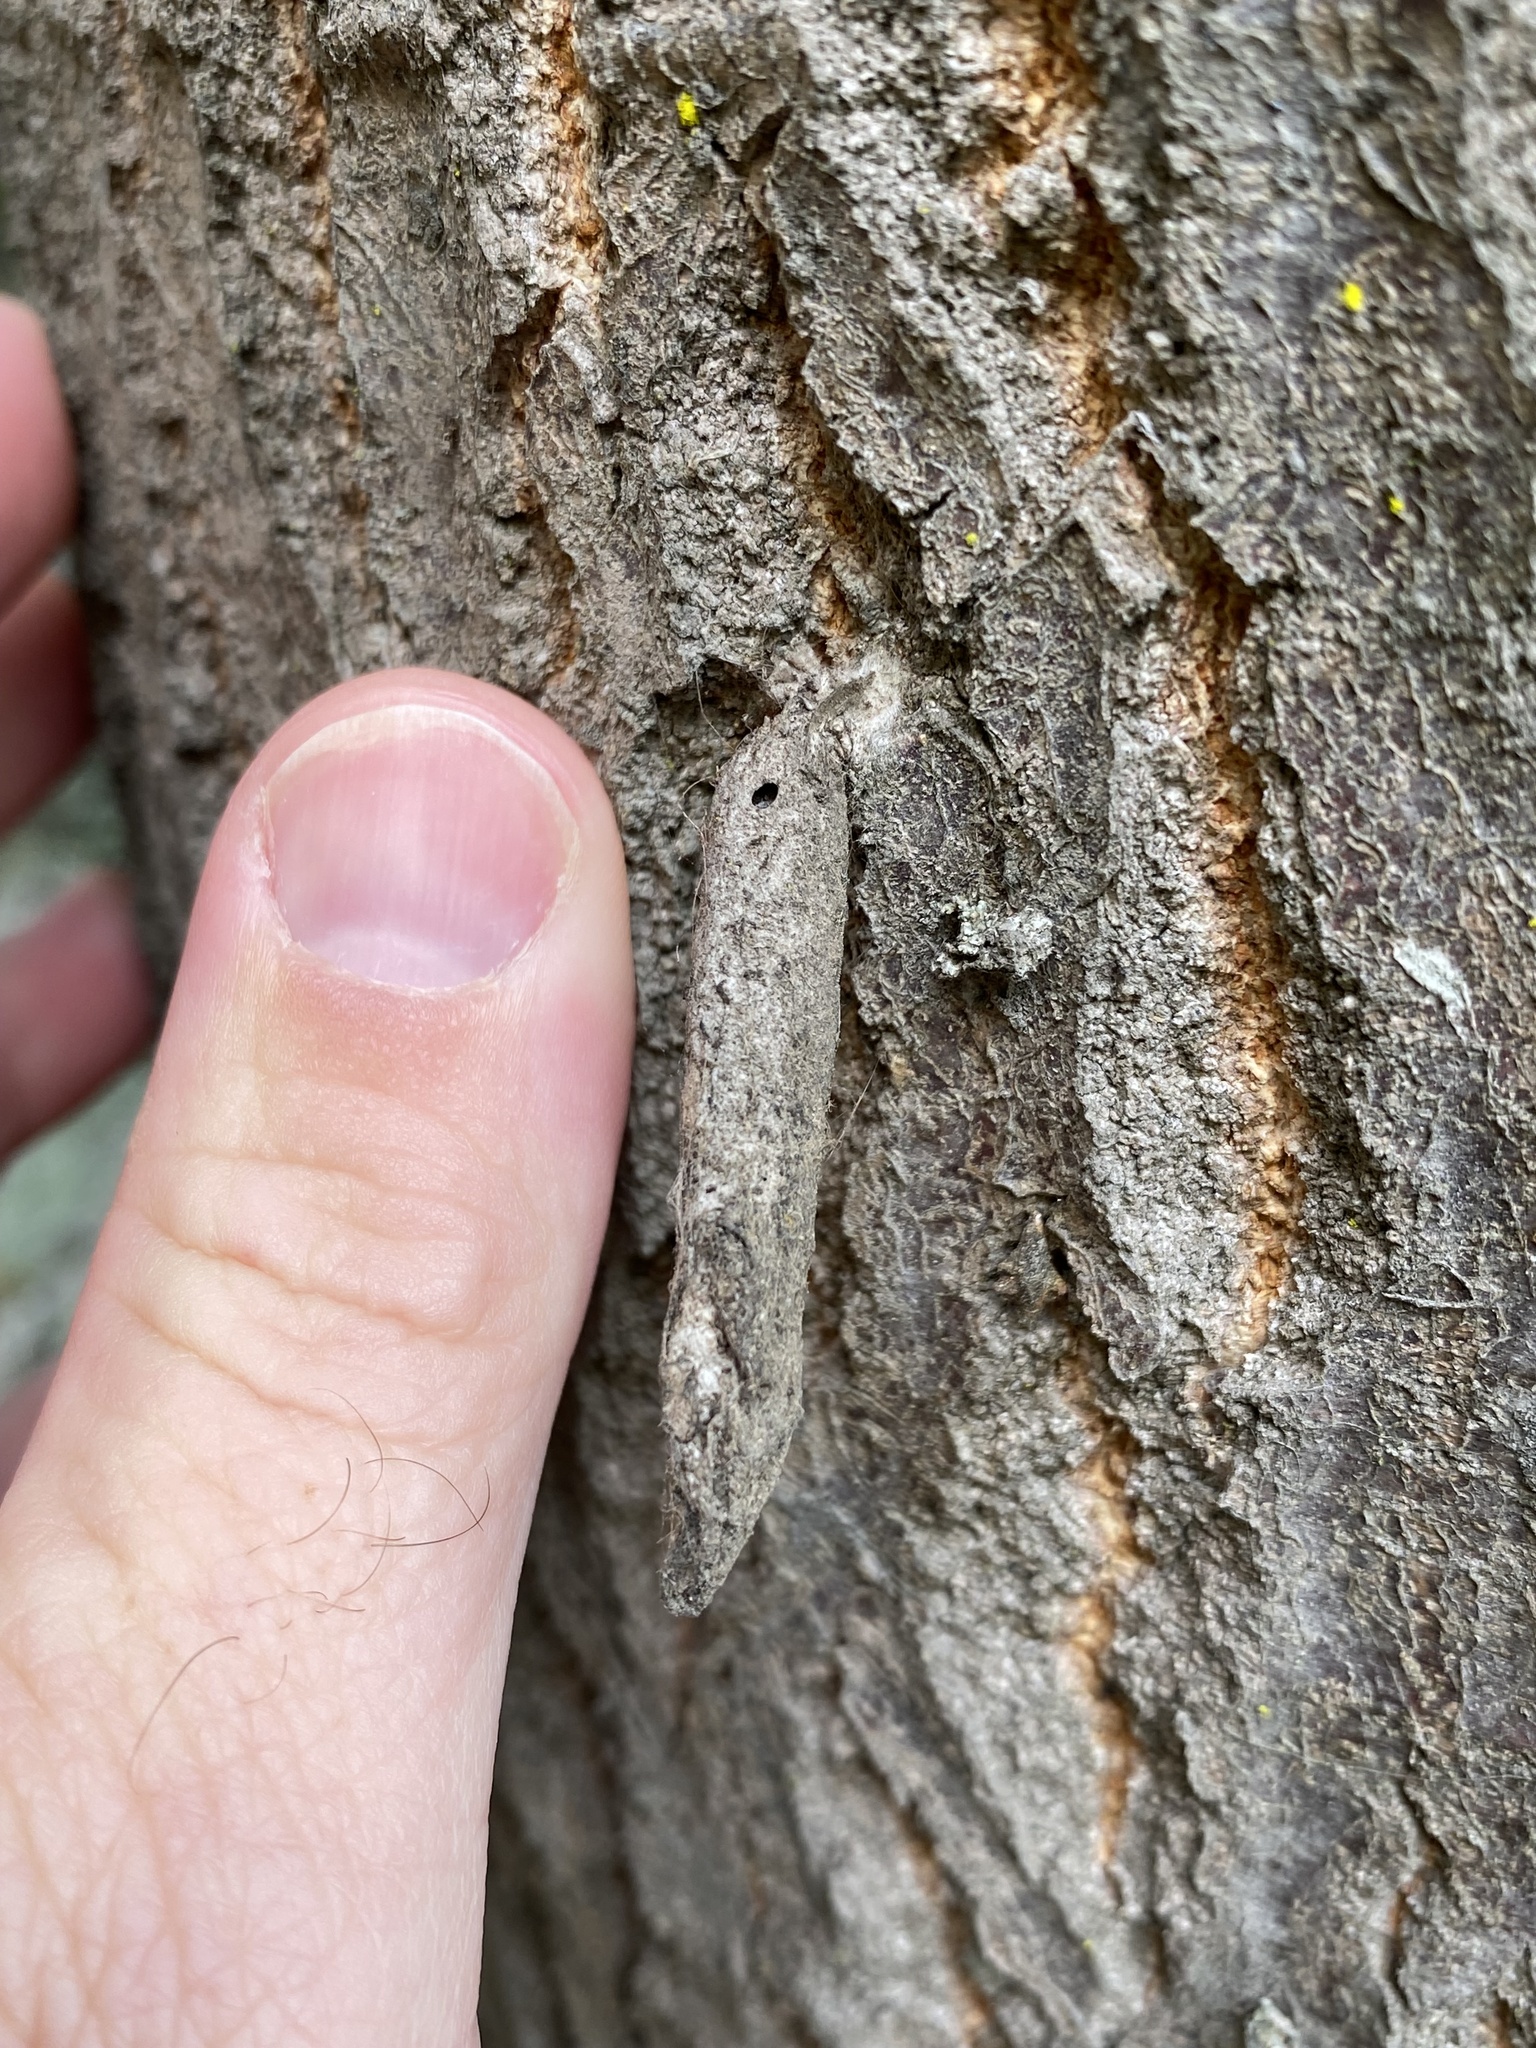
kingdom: Animalia
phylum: Arthropoda
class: Insecta
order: Lepidoptera
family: Psychidae
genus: Liothula
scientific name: Liothula omnivora
